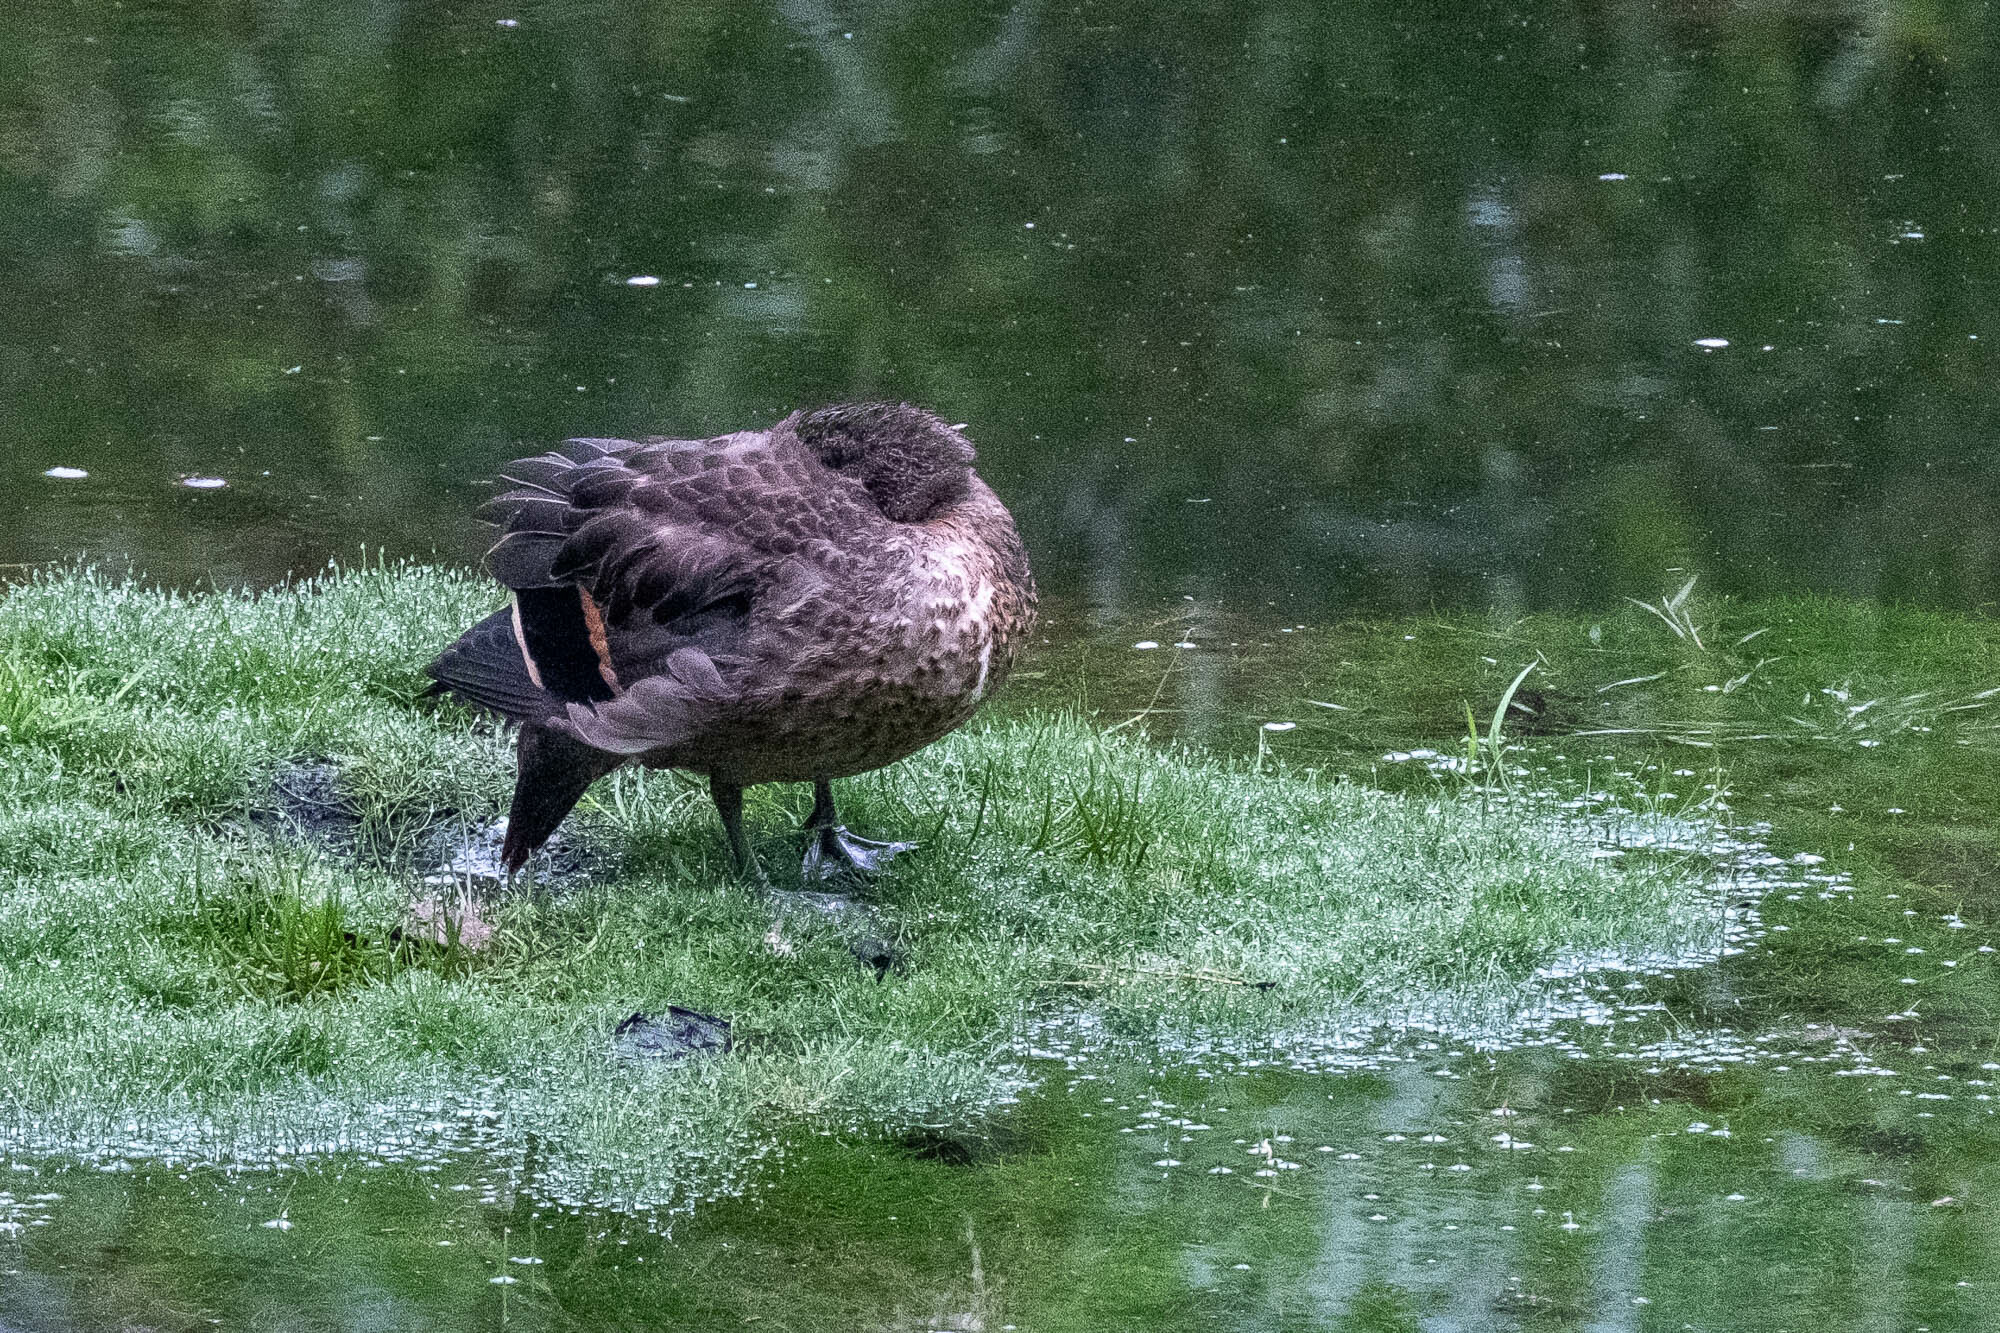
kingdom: Animalia
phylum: Chordata
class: Aves
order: Anseriformes
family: Anatidae
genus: Anas
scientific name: Anas andium
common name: Andean teal
